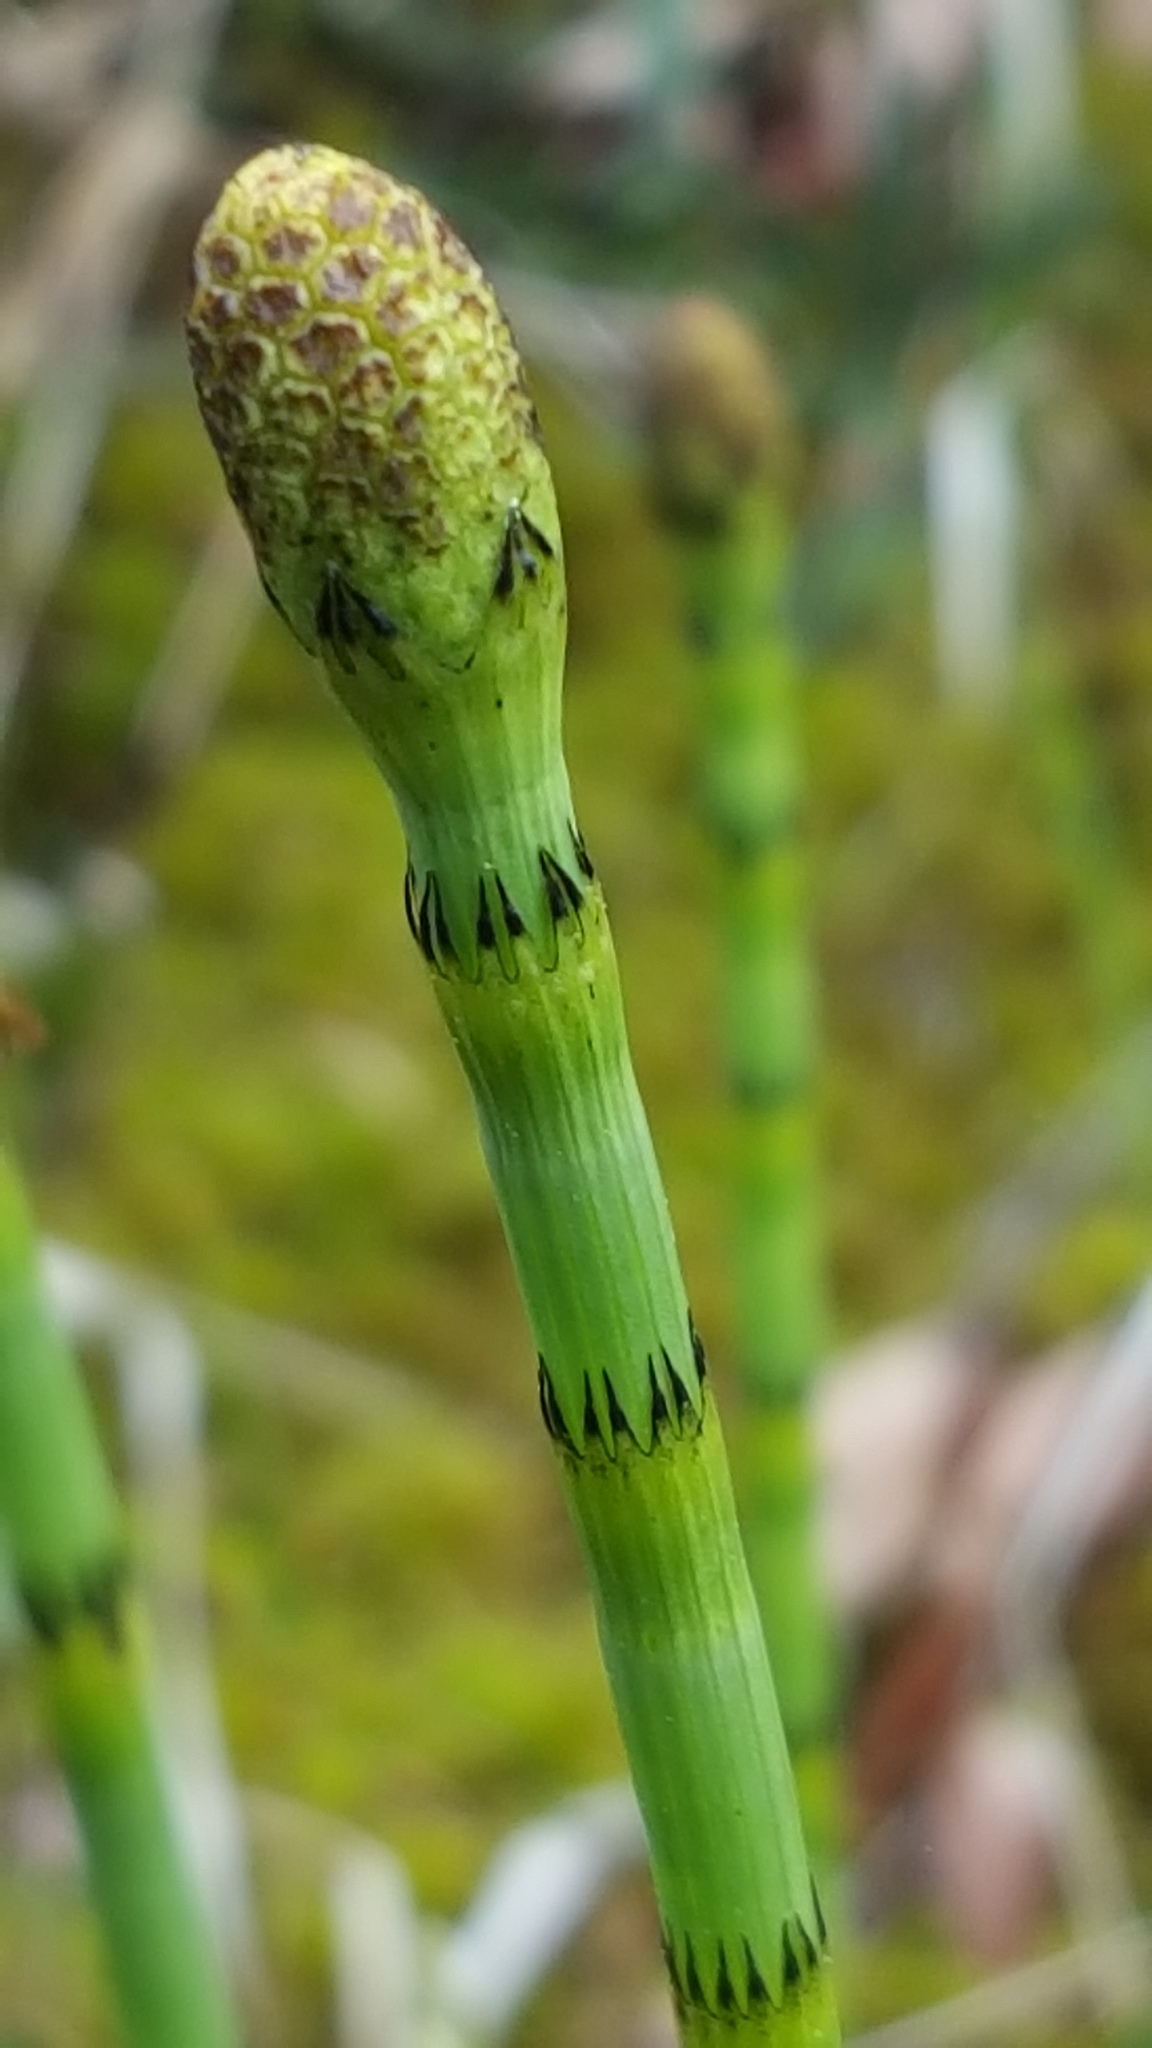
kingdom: Plantae
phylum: Tracheophyta
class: Polypodiopsida
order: Equisetales
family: Equisetaceae
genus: Equisetum
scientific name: Equisetum fluviatile
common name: Water horsetail
